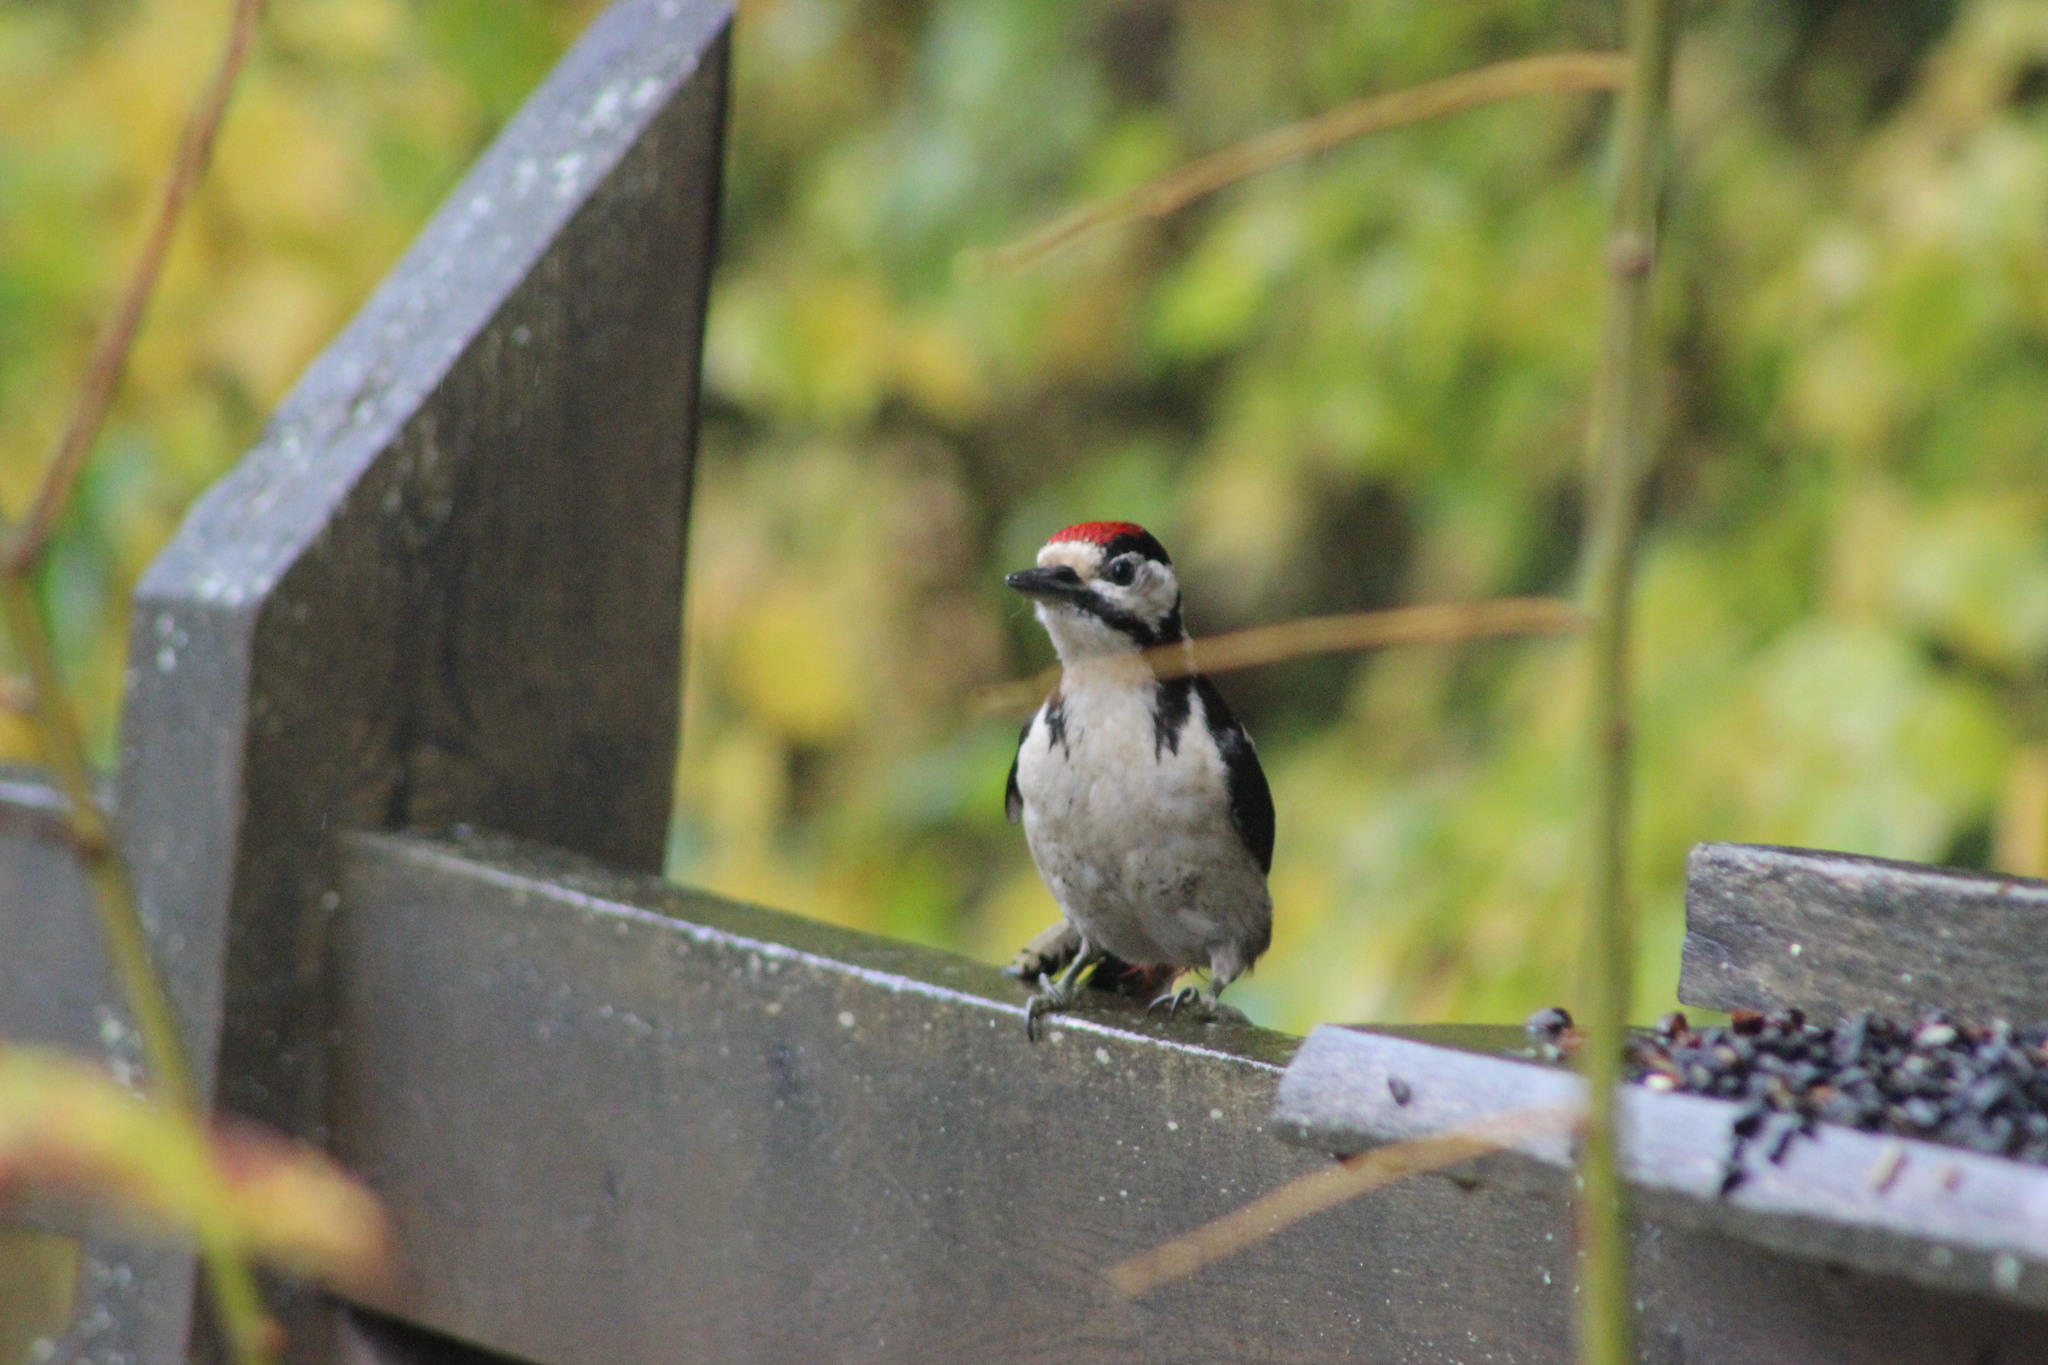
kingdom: Animalia
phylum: Chordata
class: Aves
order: Piciformes
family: Picidae
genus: Dendrocopos
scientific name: Dendrocopos major
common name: Great spotted woodpecker
